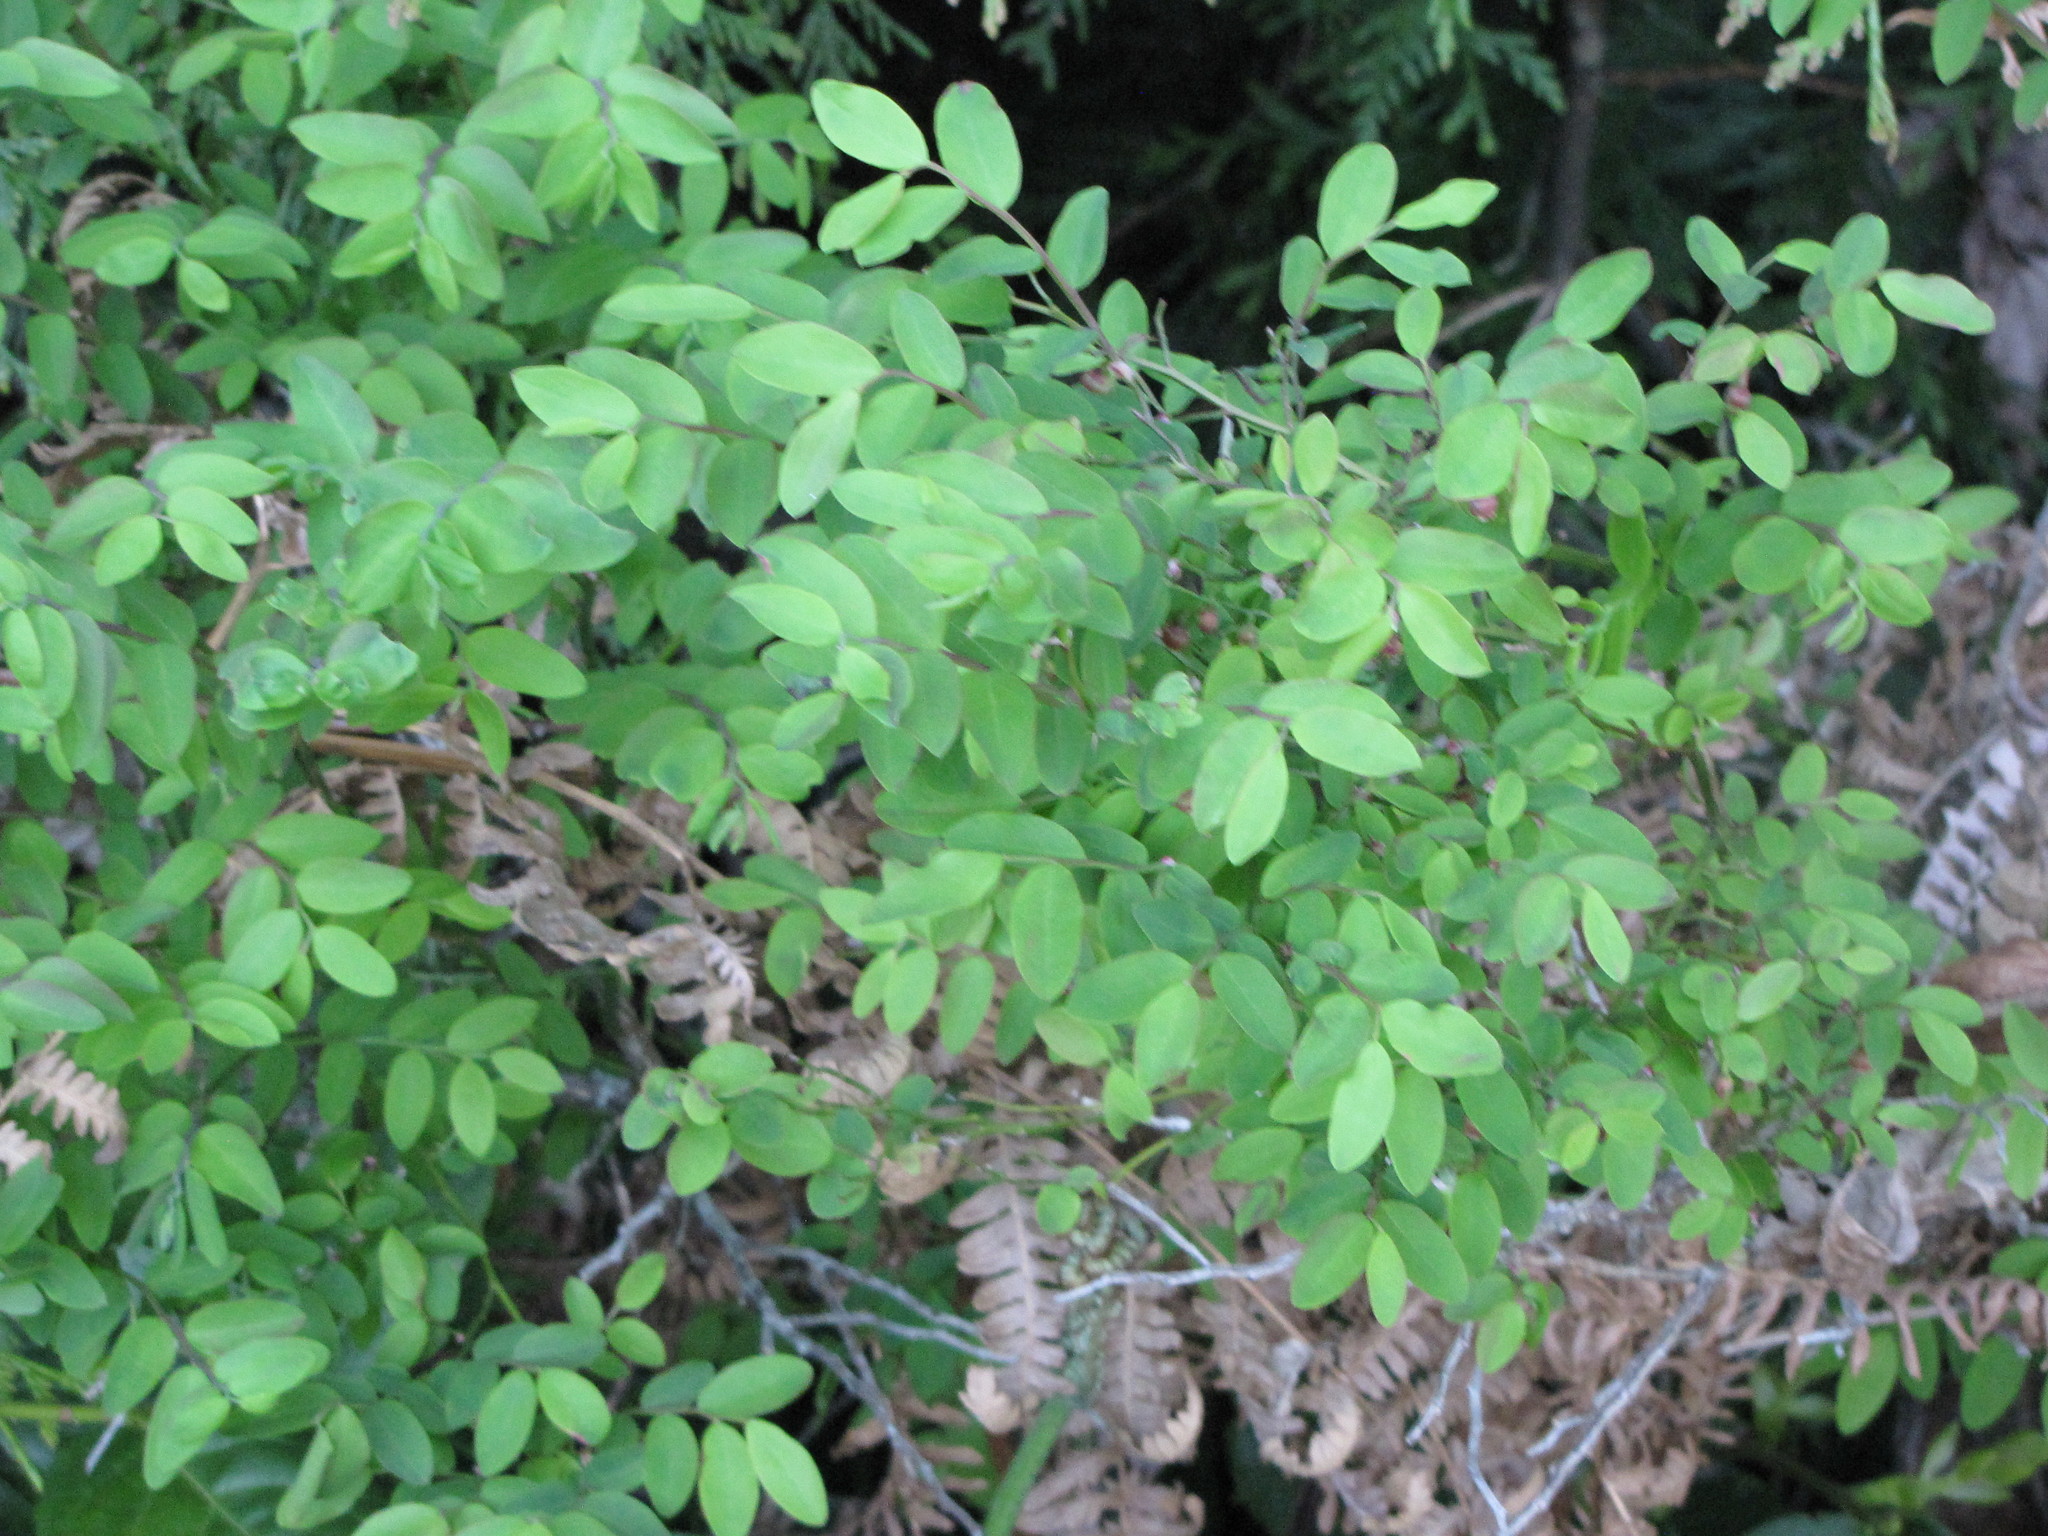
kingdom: Plantae
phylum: Tracheophyta
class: Magnoliopsida
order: Ericales
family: Ericaceae
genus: Vaccinium
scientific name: Vaccinium parvifolium
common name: Red-huckleberry
